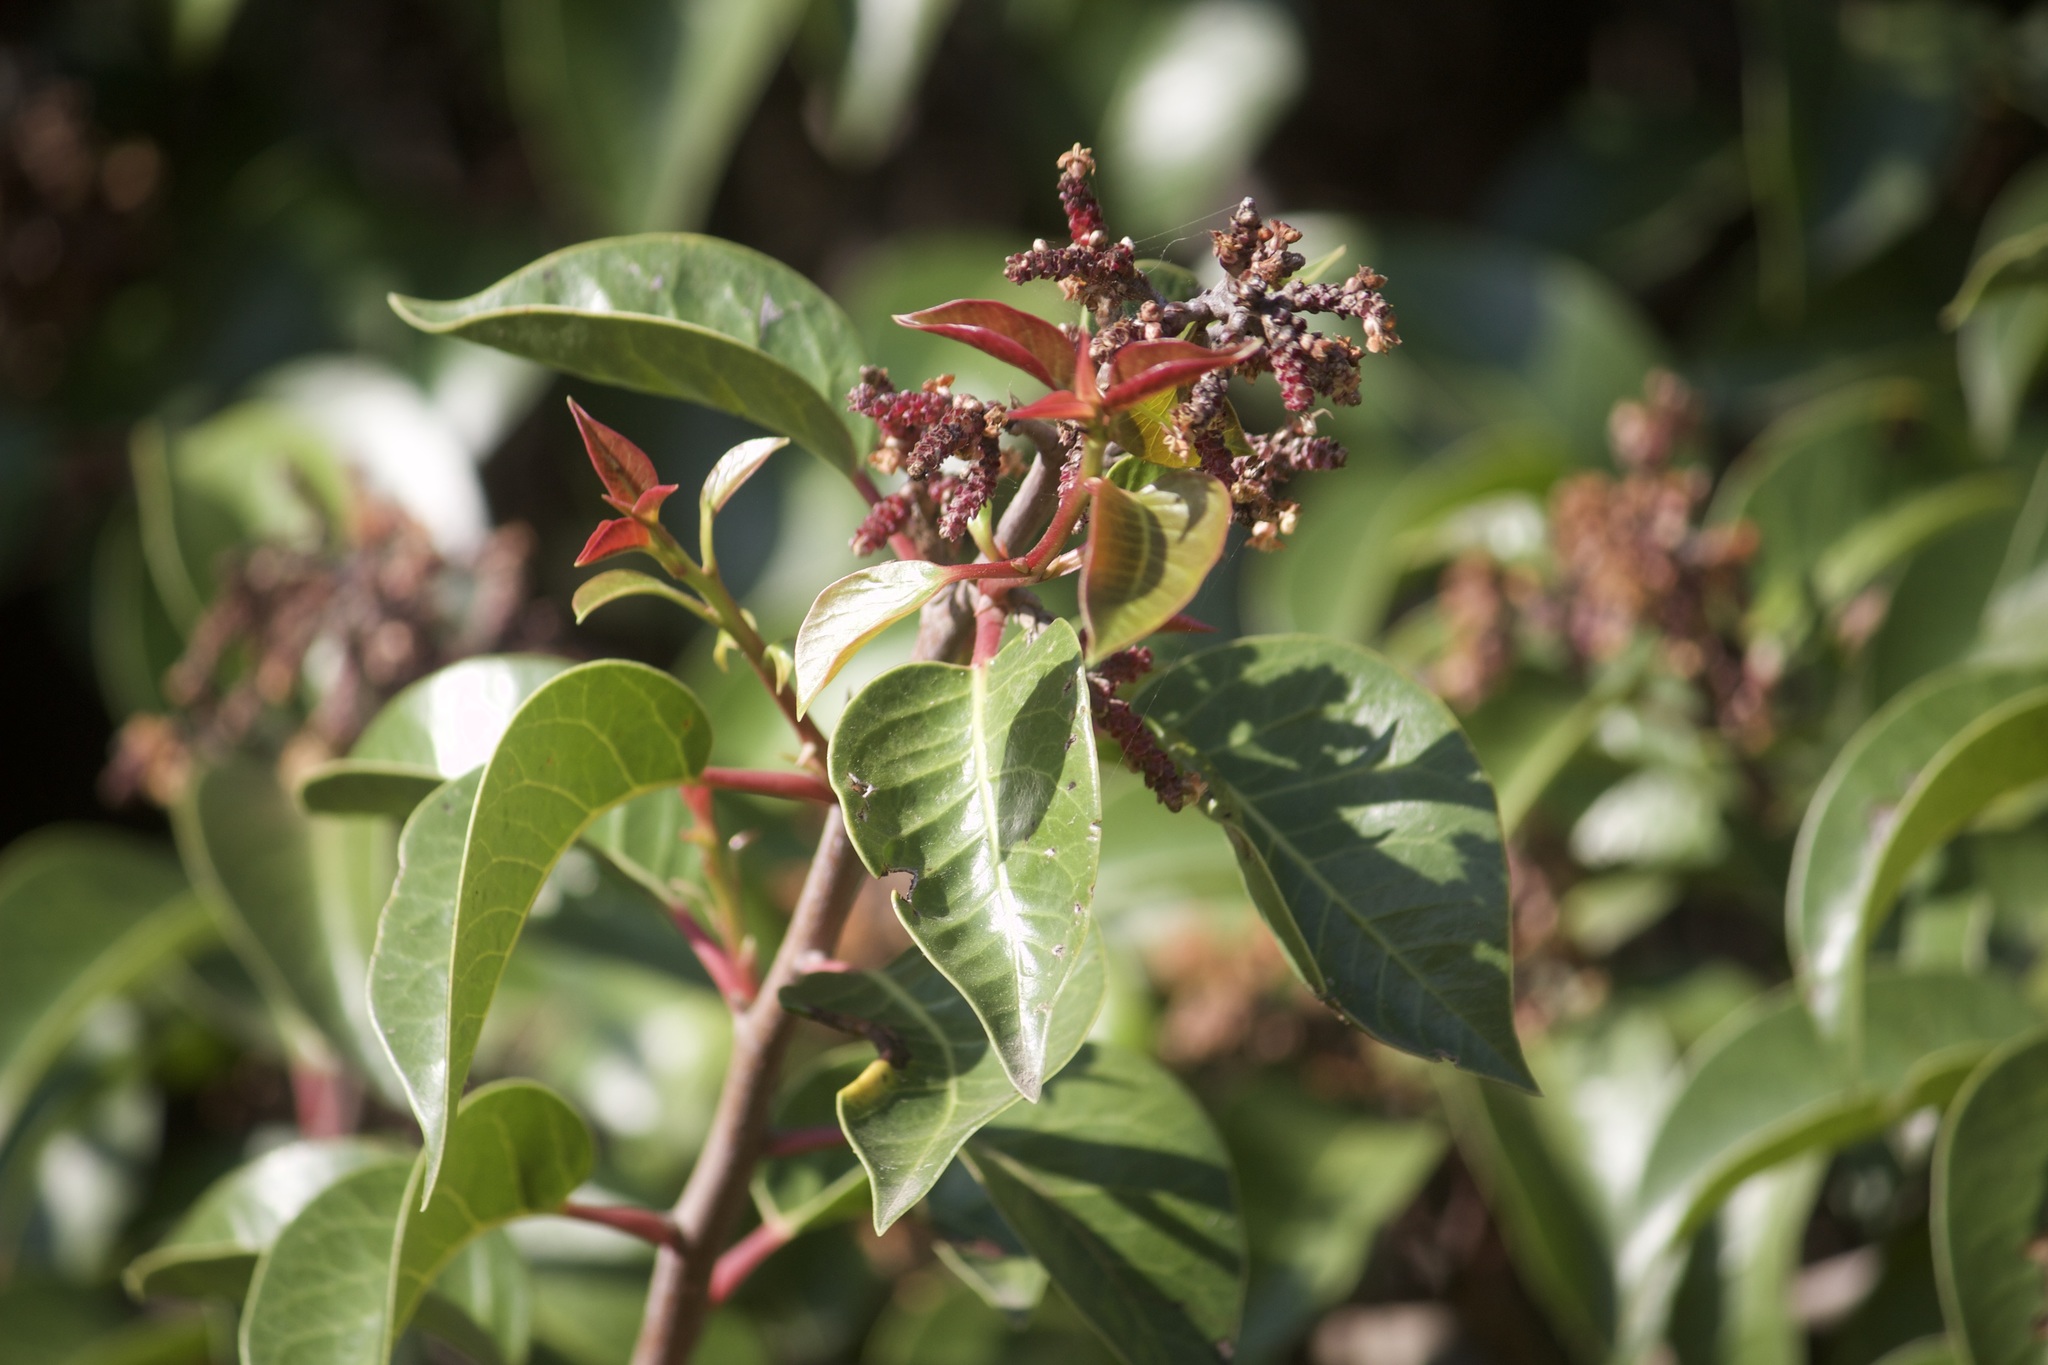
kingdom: Plantae
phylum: Tracheophyta
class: Magnoliopsida
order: Sapindales
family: Anacardiaceae
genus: Rhus
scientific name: Rhus ovata
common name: Sugar sumac
